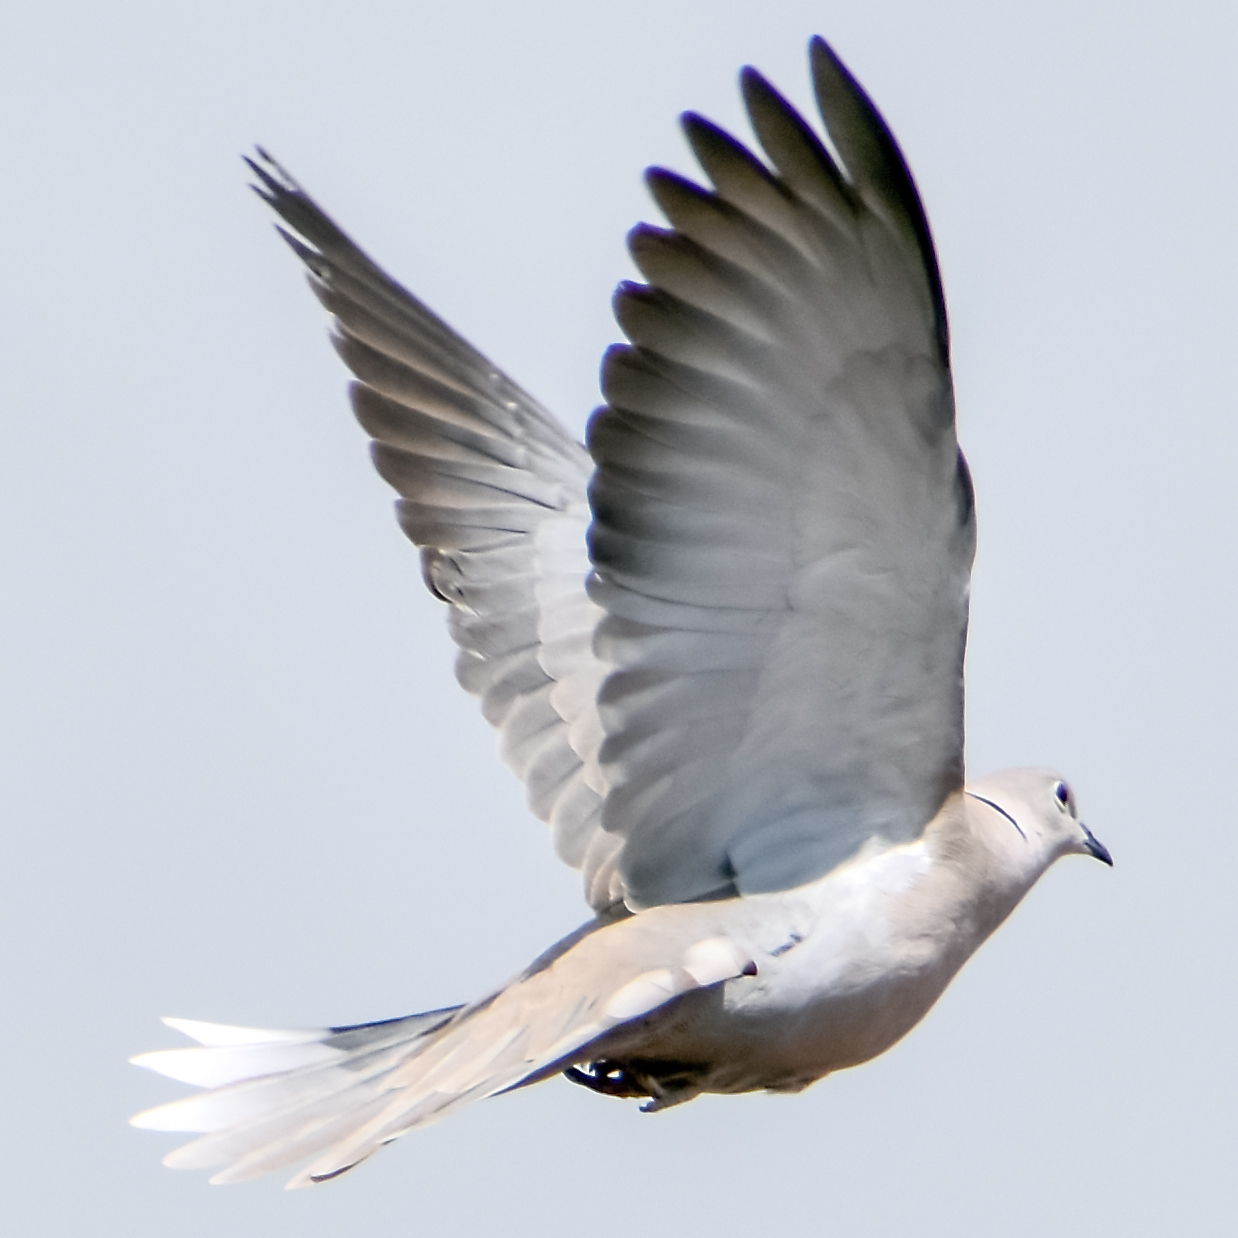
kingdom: Animalia
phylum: Chordata
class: Aves
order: Columbiformes
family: Columbidae
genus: Streptopelia
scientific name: Streptopelia decaocto
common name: Eurasian collared dove
